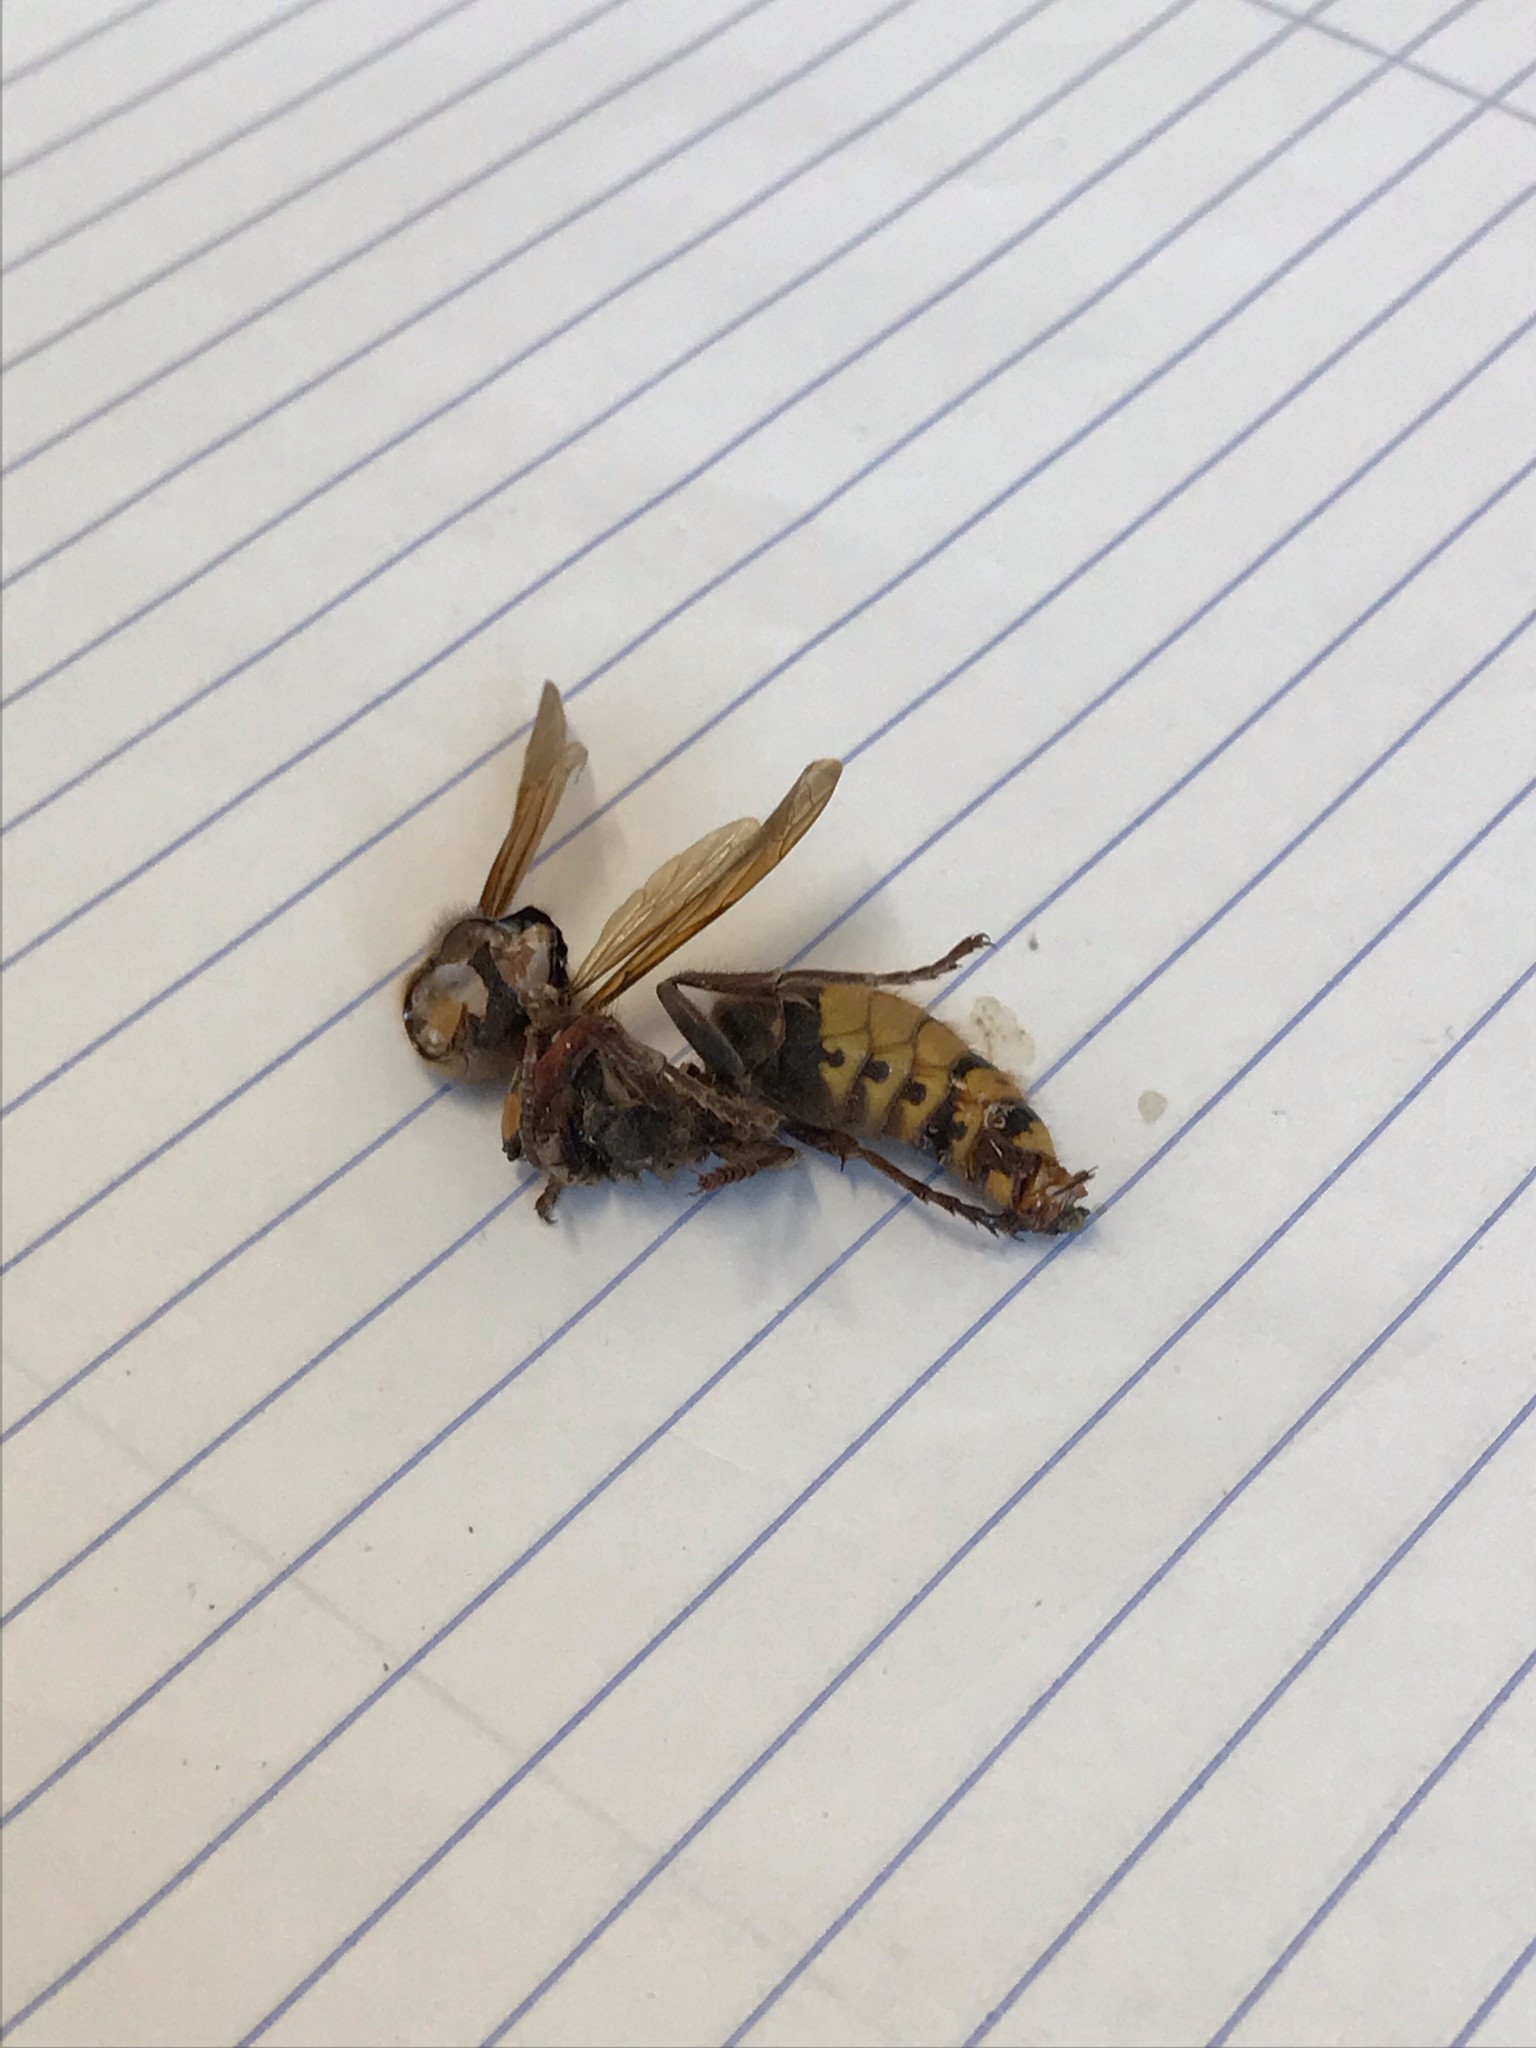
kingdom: Animalia
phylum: Arthropoda
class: Insecta
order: Hymenoptera
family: Vespidae
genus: Vespa
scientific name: Vespa crabro
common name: Hornet
